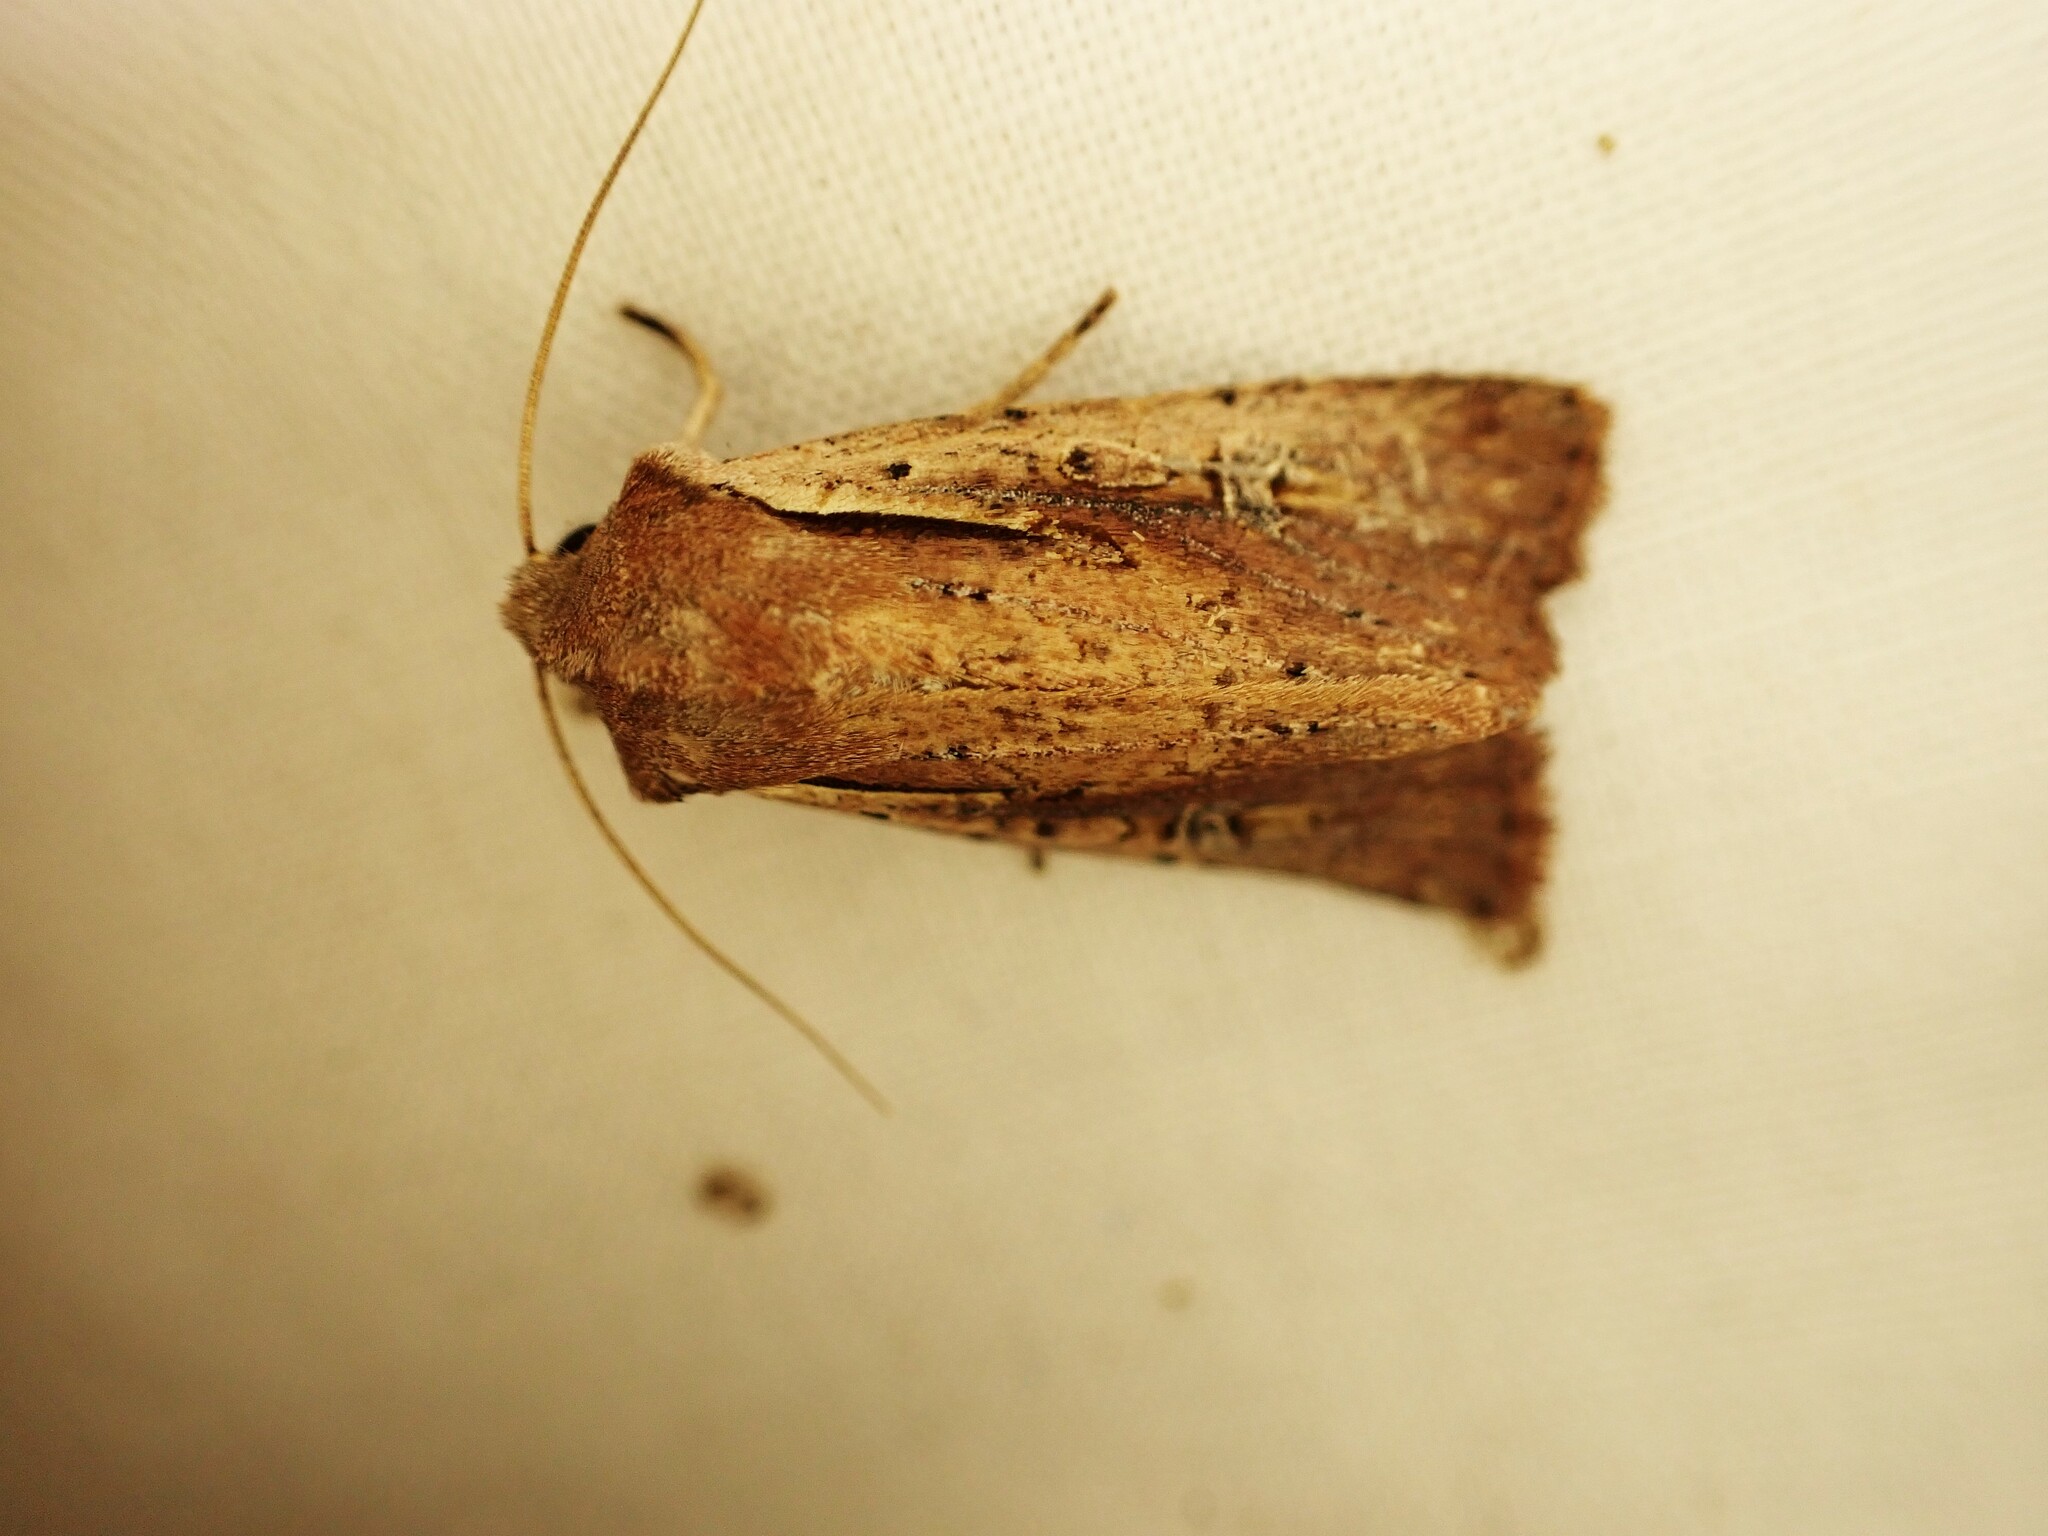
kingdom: Animalia
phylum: Arthropoda
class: Insecta
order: Lepidoptera
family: Noctuidae
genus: Ichneutica
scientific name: Ichneutica atristriga
